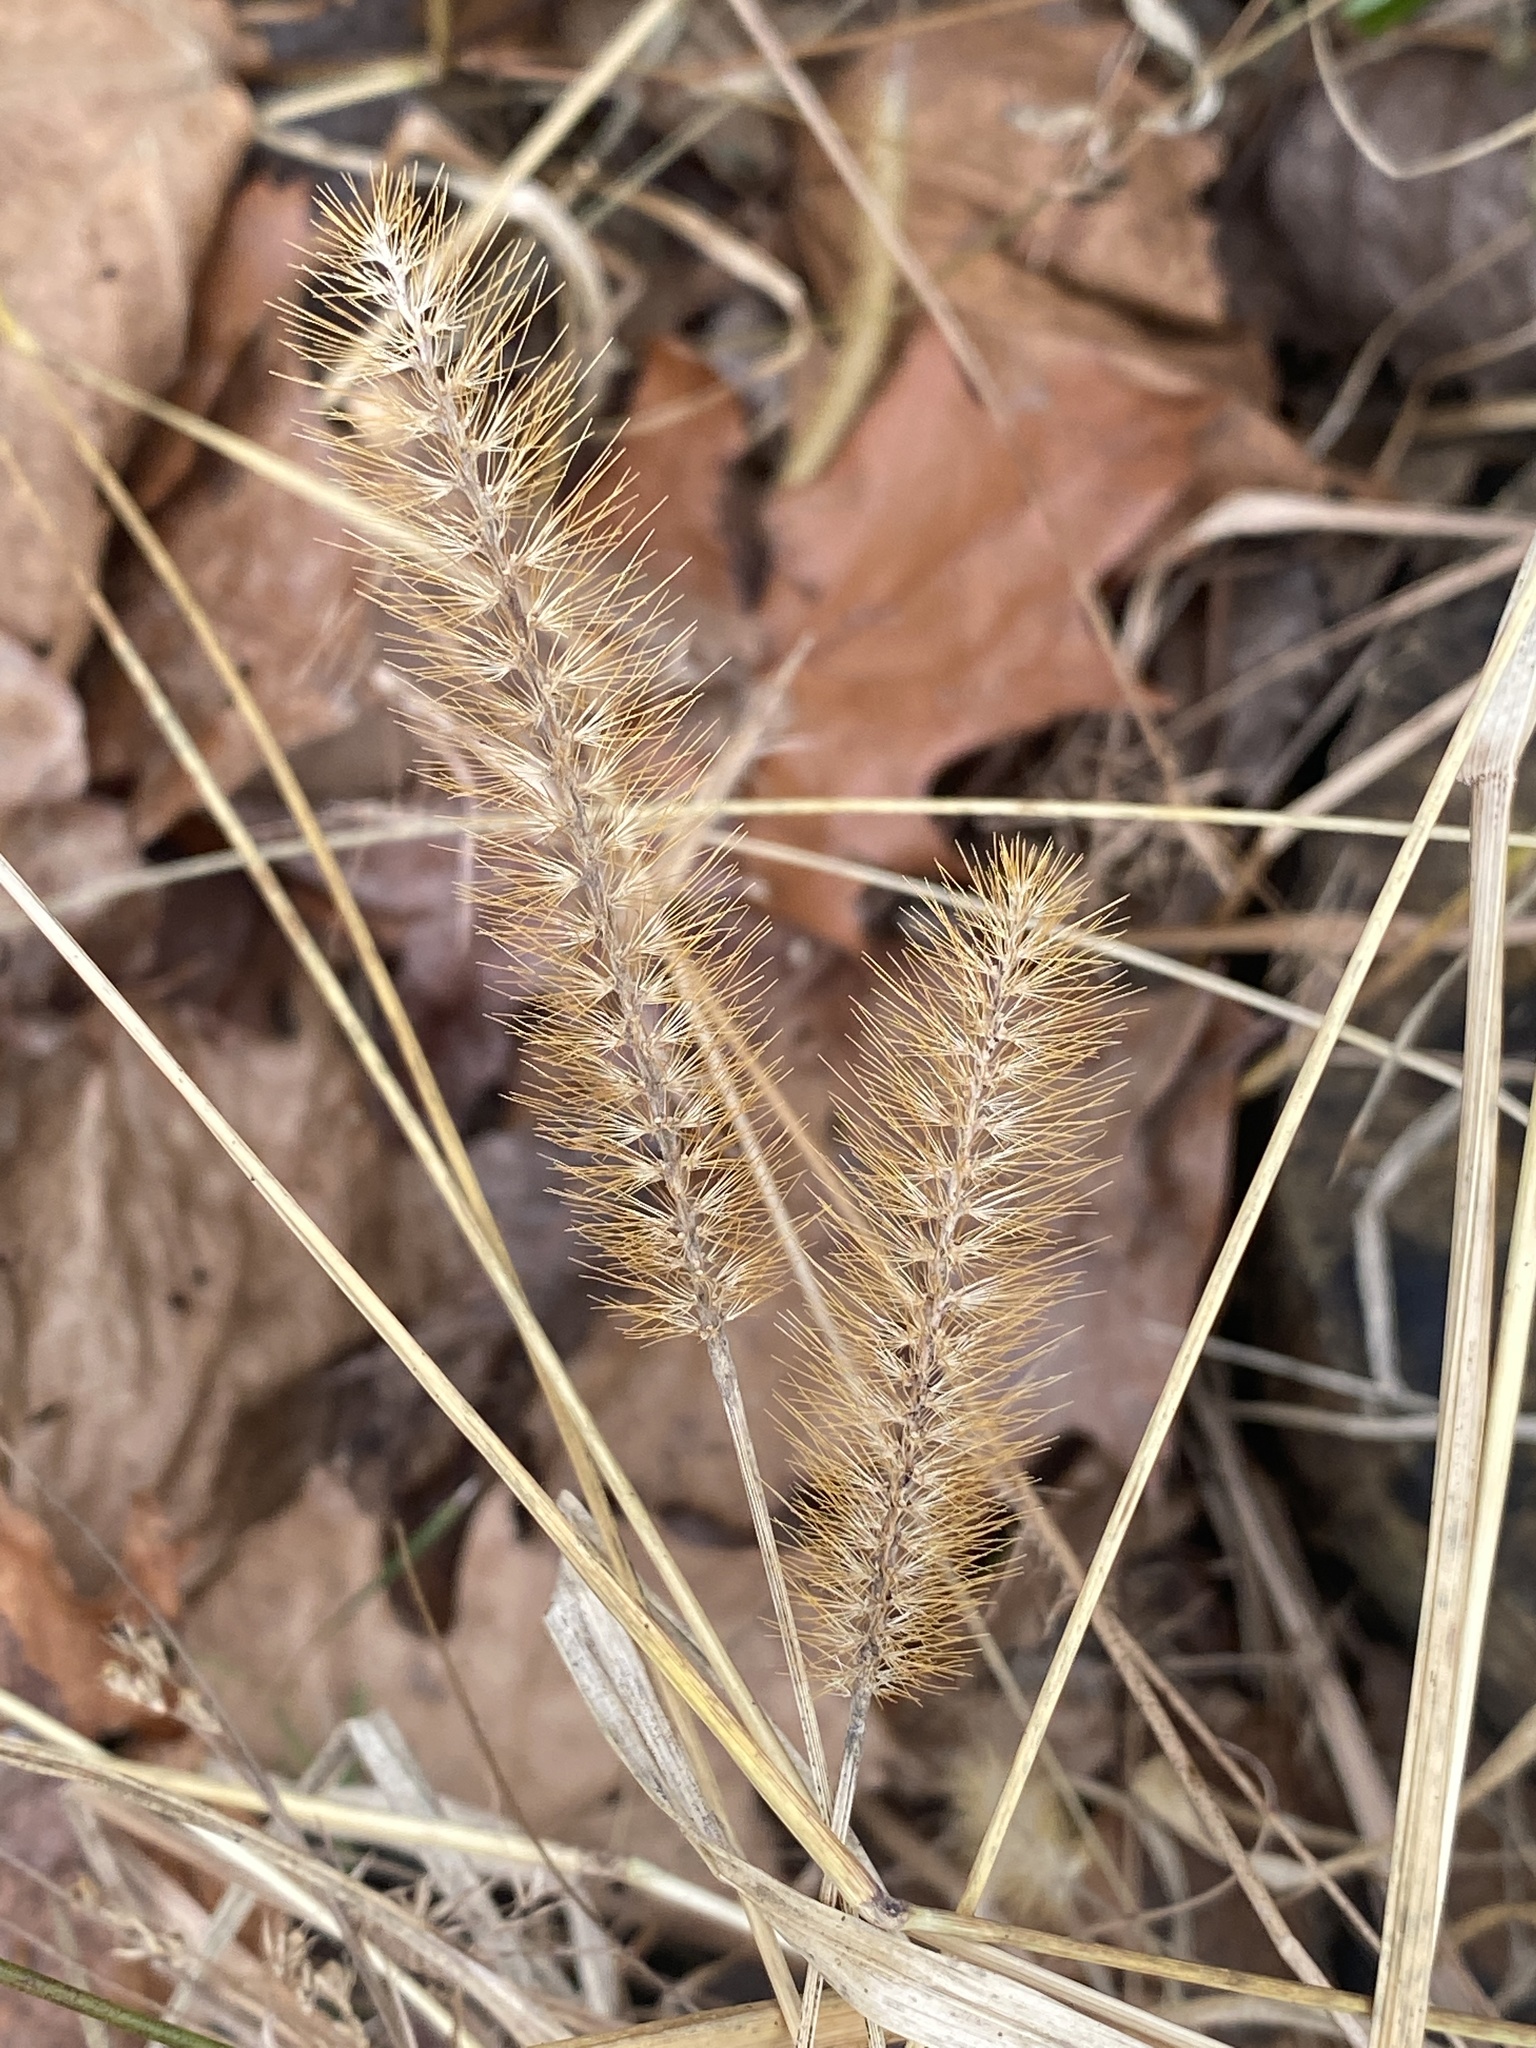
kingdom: Plantae
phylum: Tracheophyta
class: Liliopsida
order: Poales
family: Poaceae
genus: Setaria
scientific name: Setaria pumila
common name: Yellow bristle-grass
